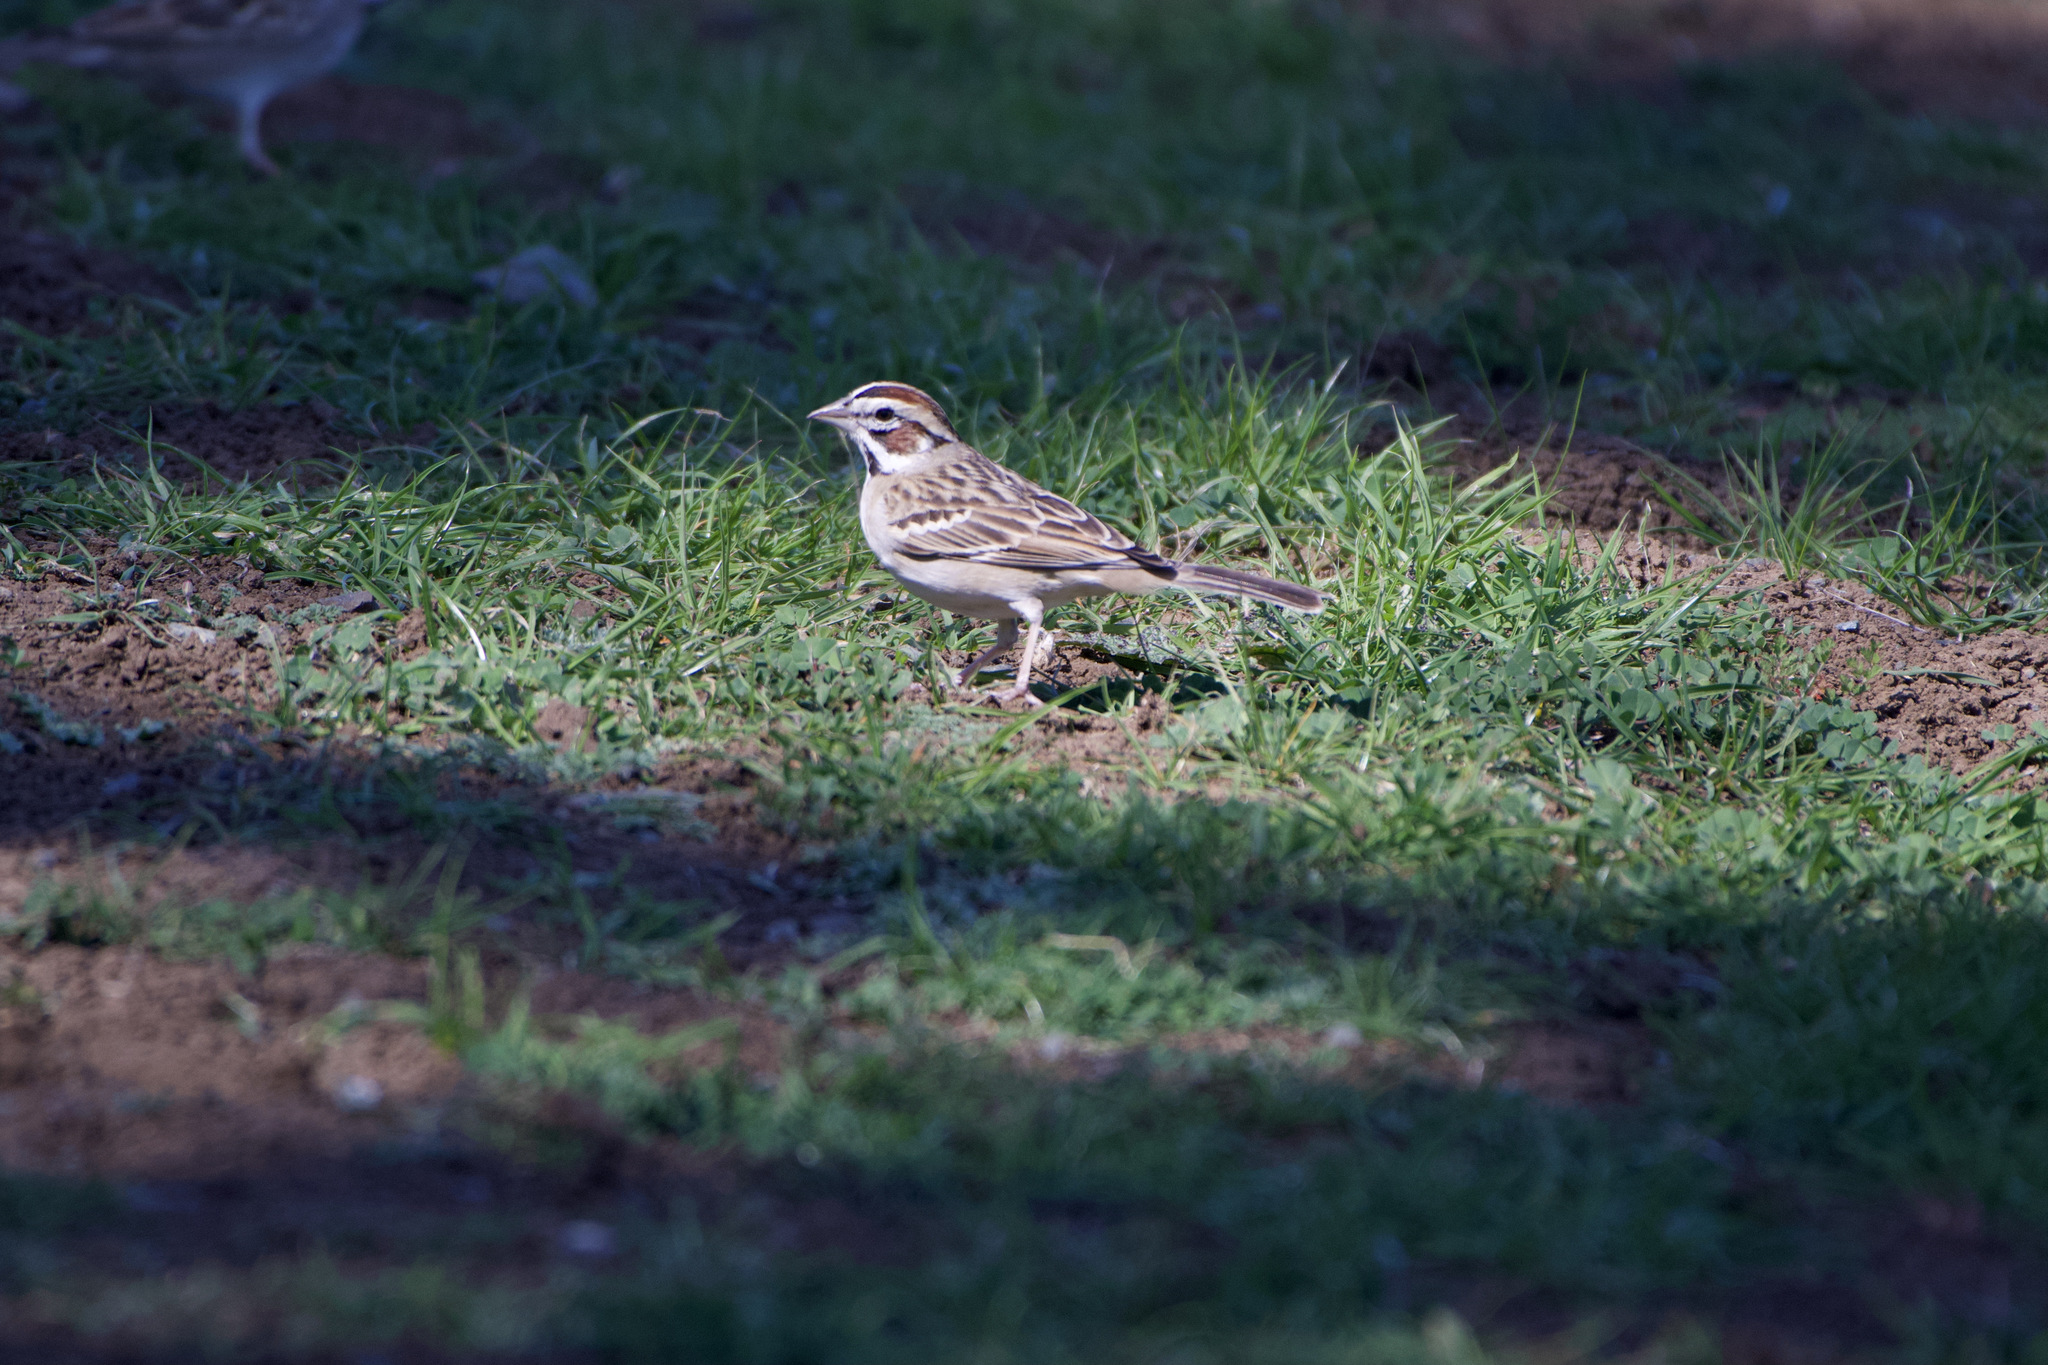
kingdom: Animalia
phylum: Chordata
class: Aves
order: Passeriformes
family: Passerellidae
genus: Chondestes
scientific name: Chondestes grammacus
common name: Lark sparrow
